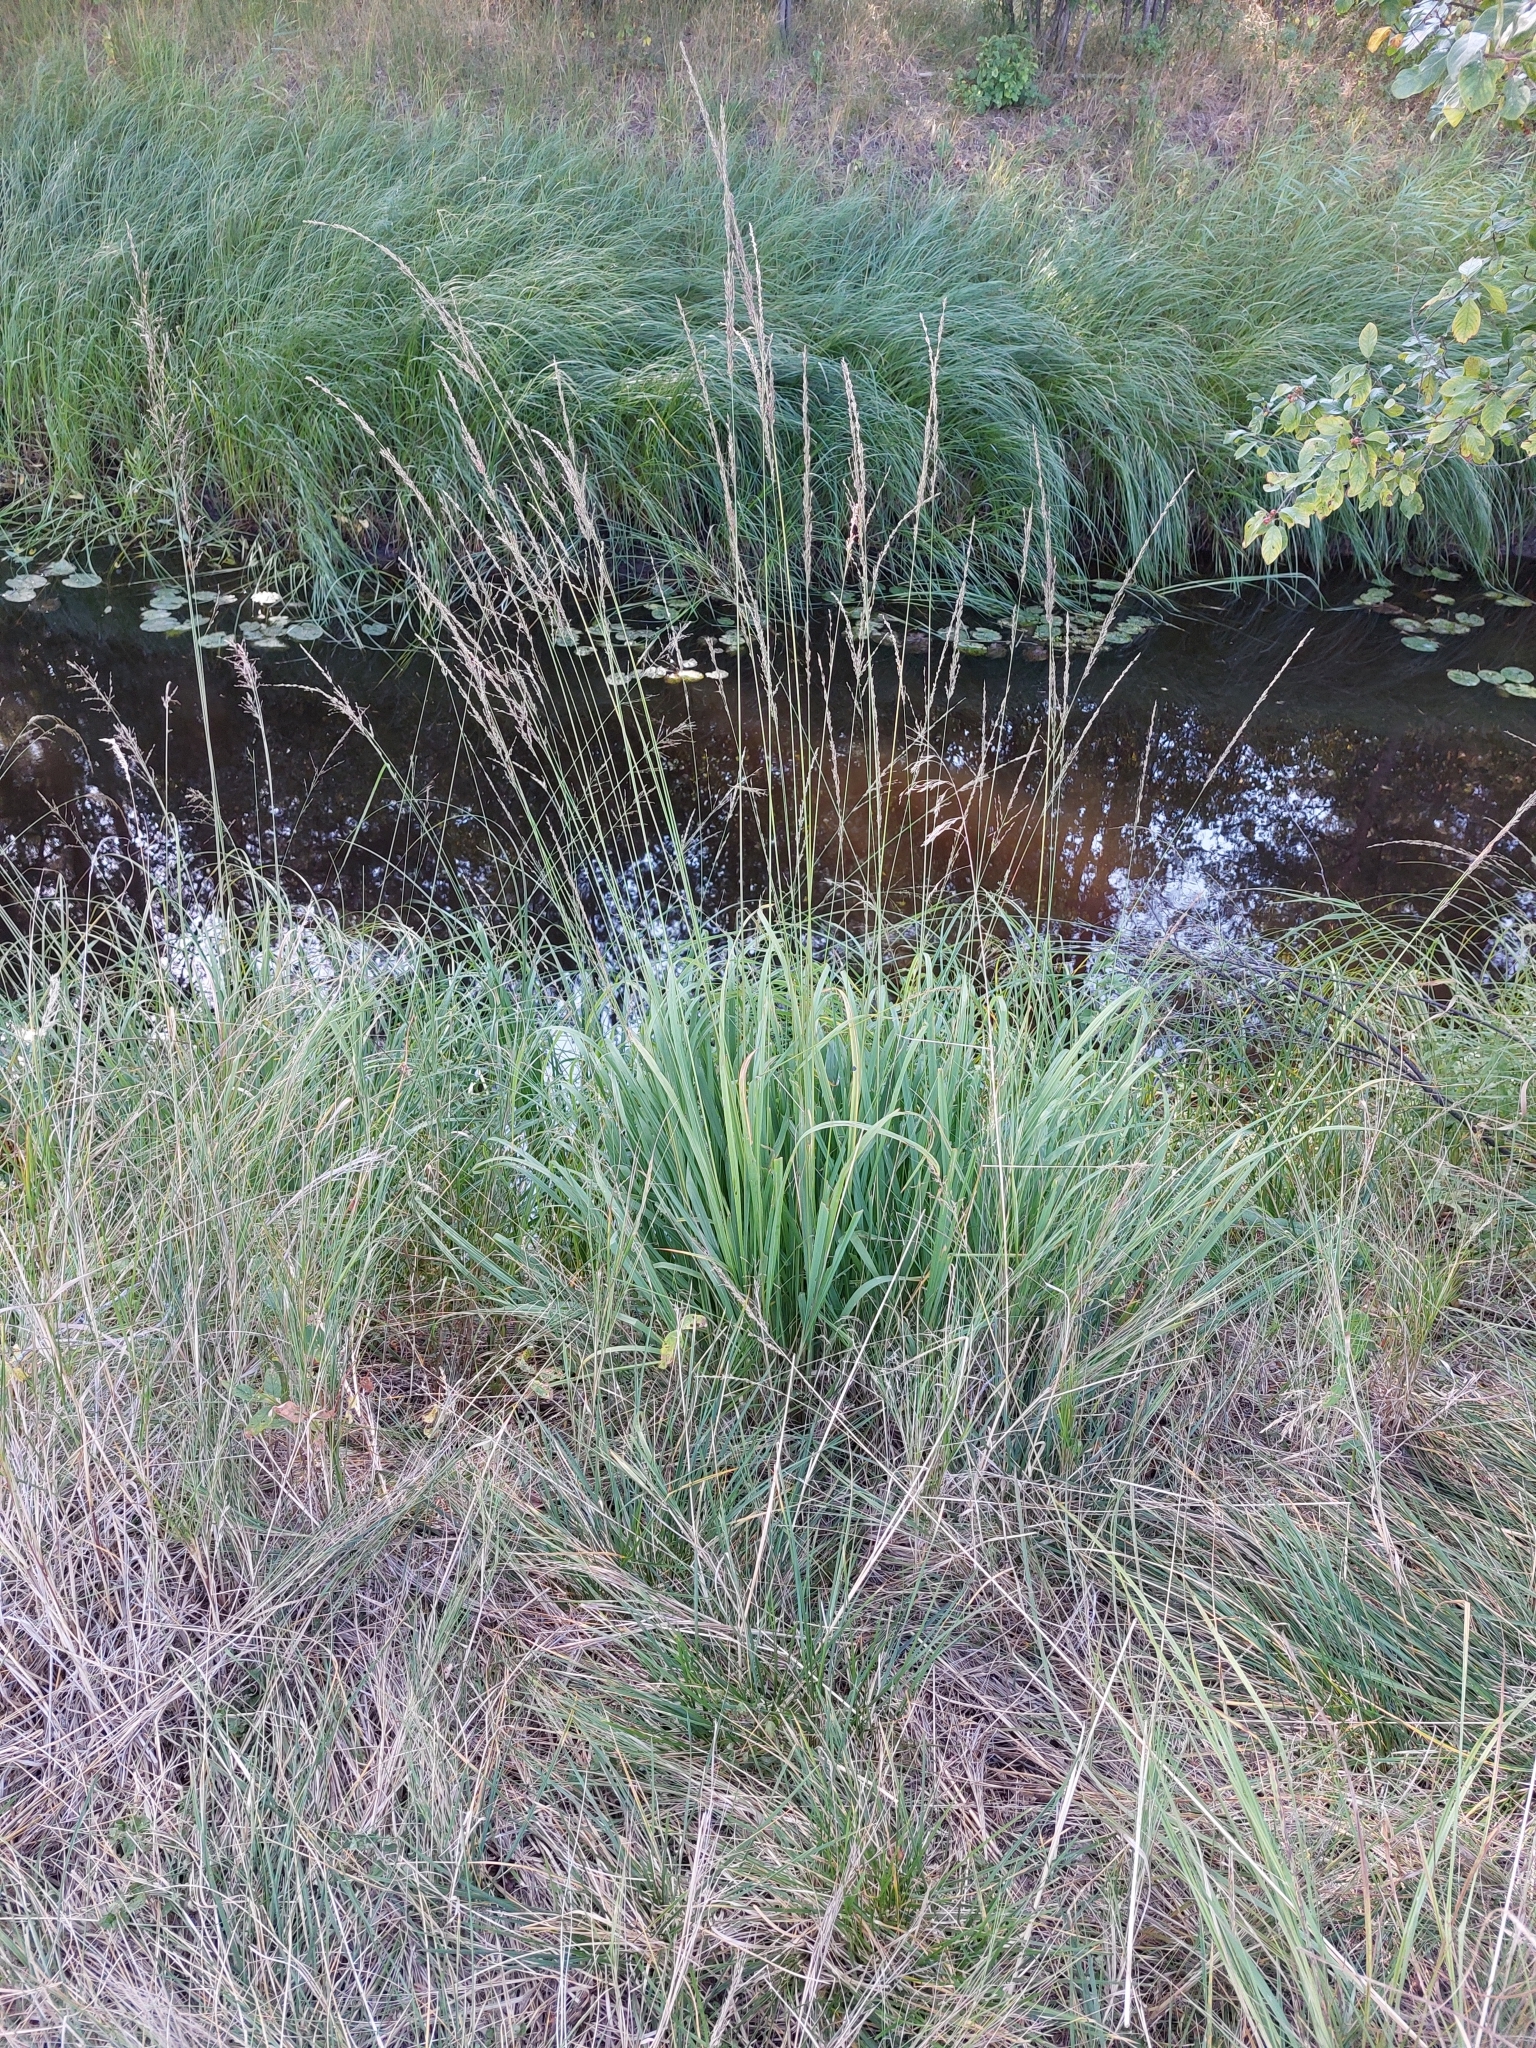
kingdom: Plantae
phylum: Tracheophyta
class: Liliopsida
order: Poales
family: Poaceae
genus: Molinia
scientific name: Molinia caerulea
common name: Purple moor-grass
